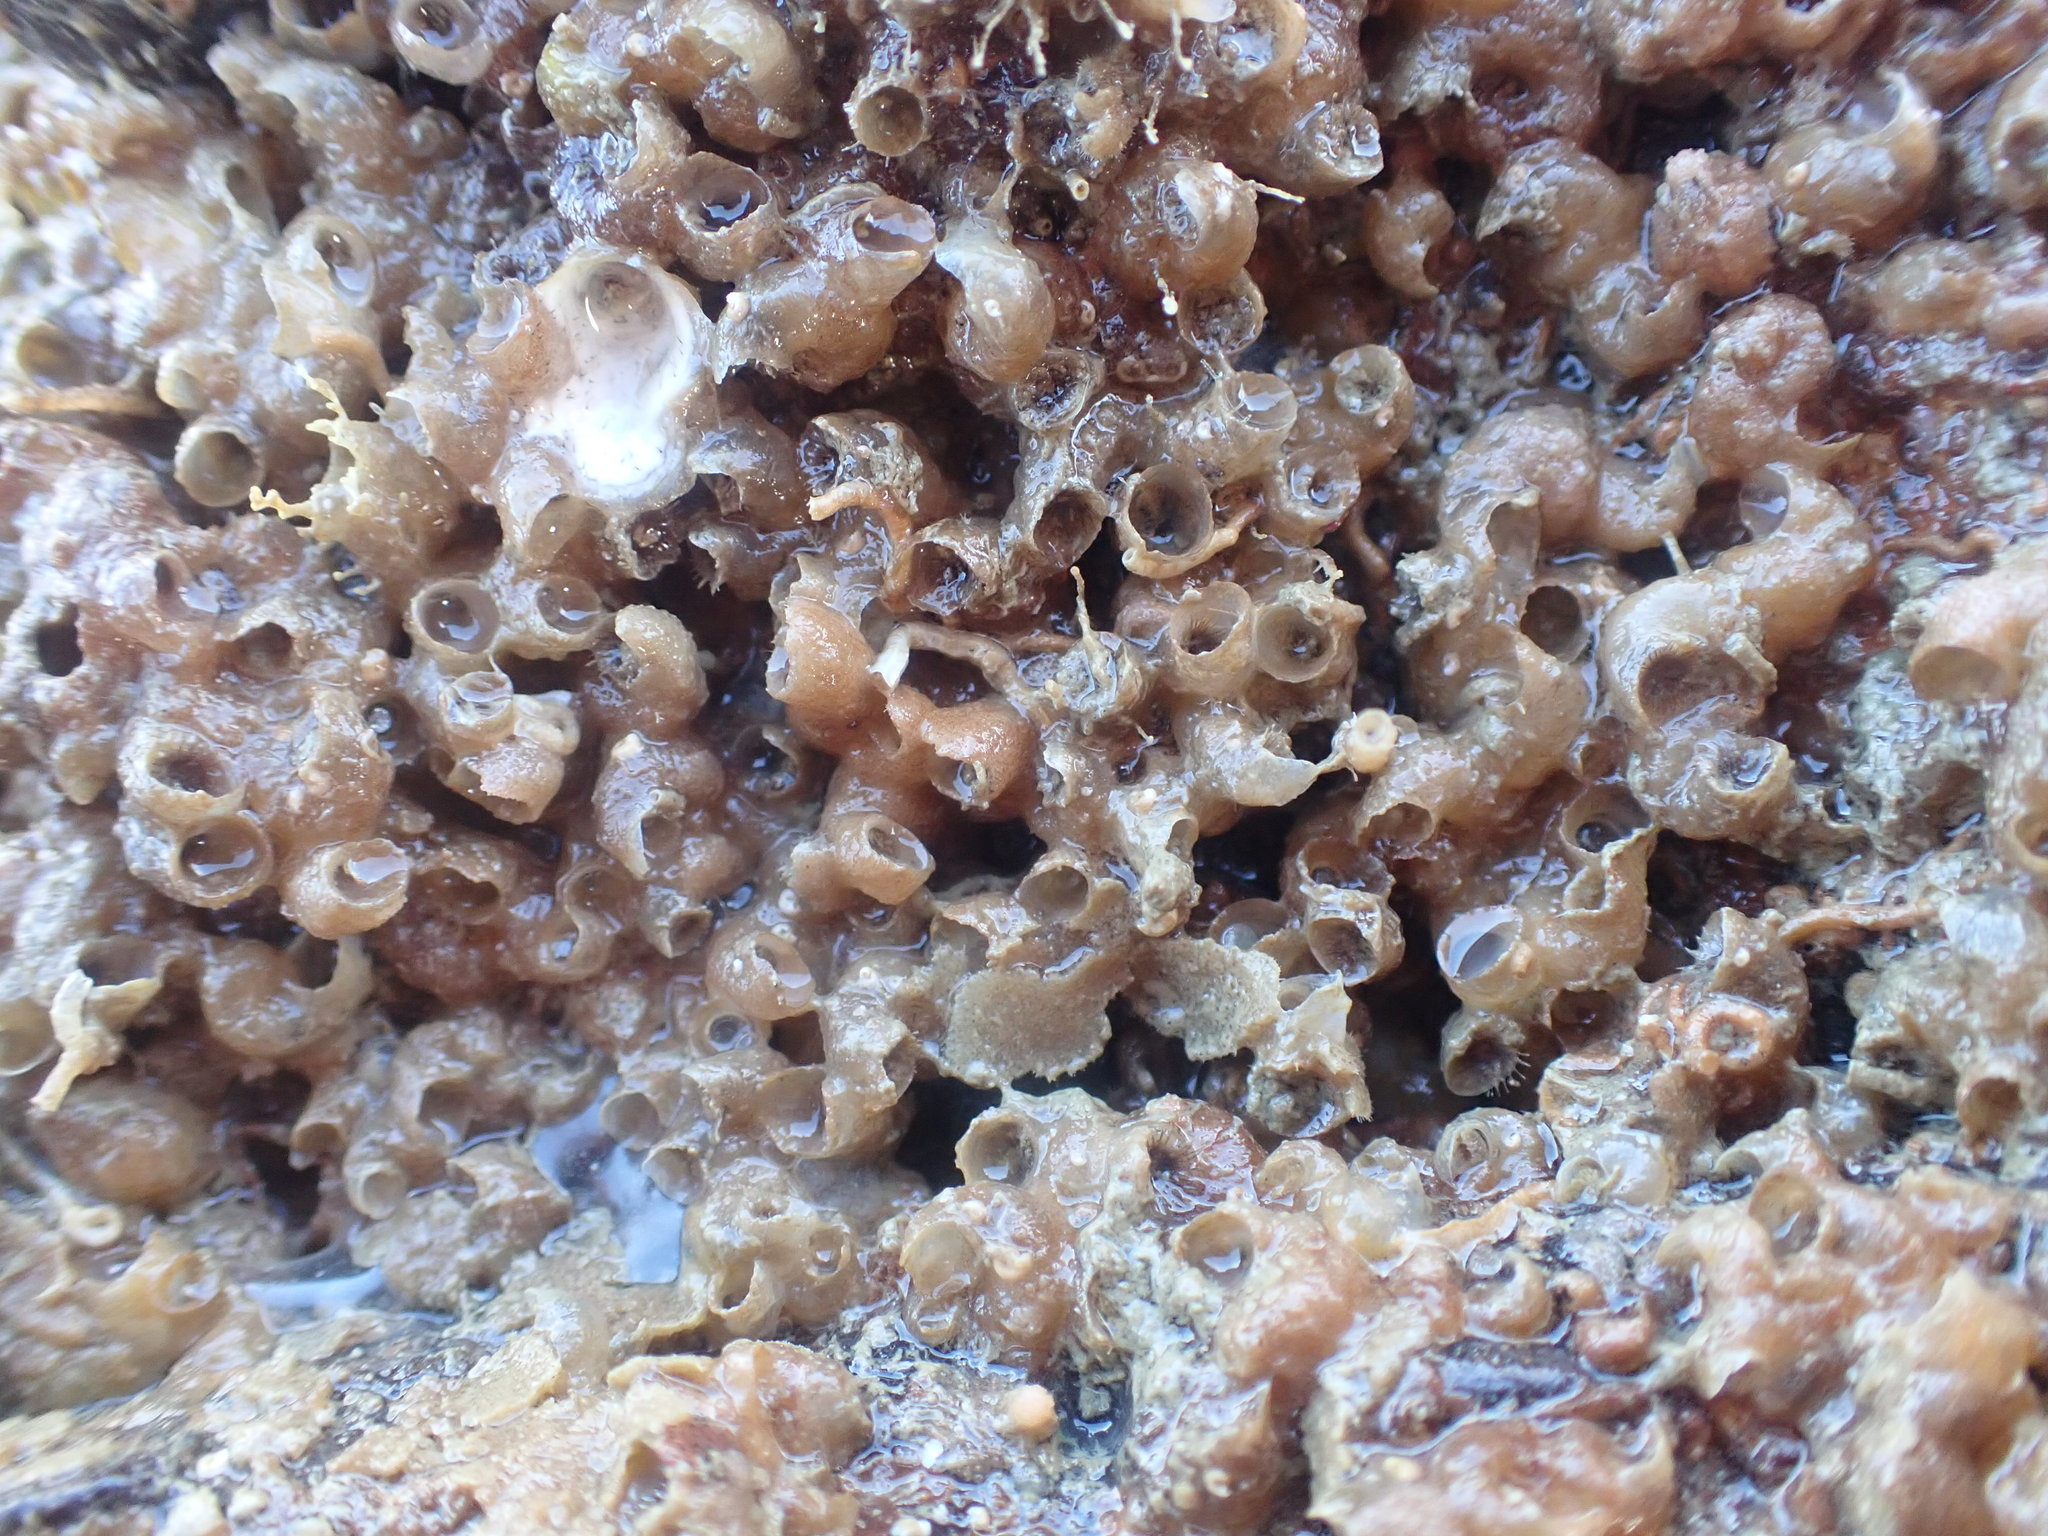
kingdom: Animalia
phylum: Mollusca
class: Gastropoda
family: Siliquariidae
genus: Stephopoma
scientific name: Stephopoma roseum
